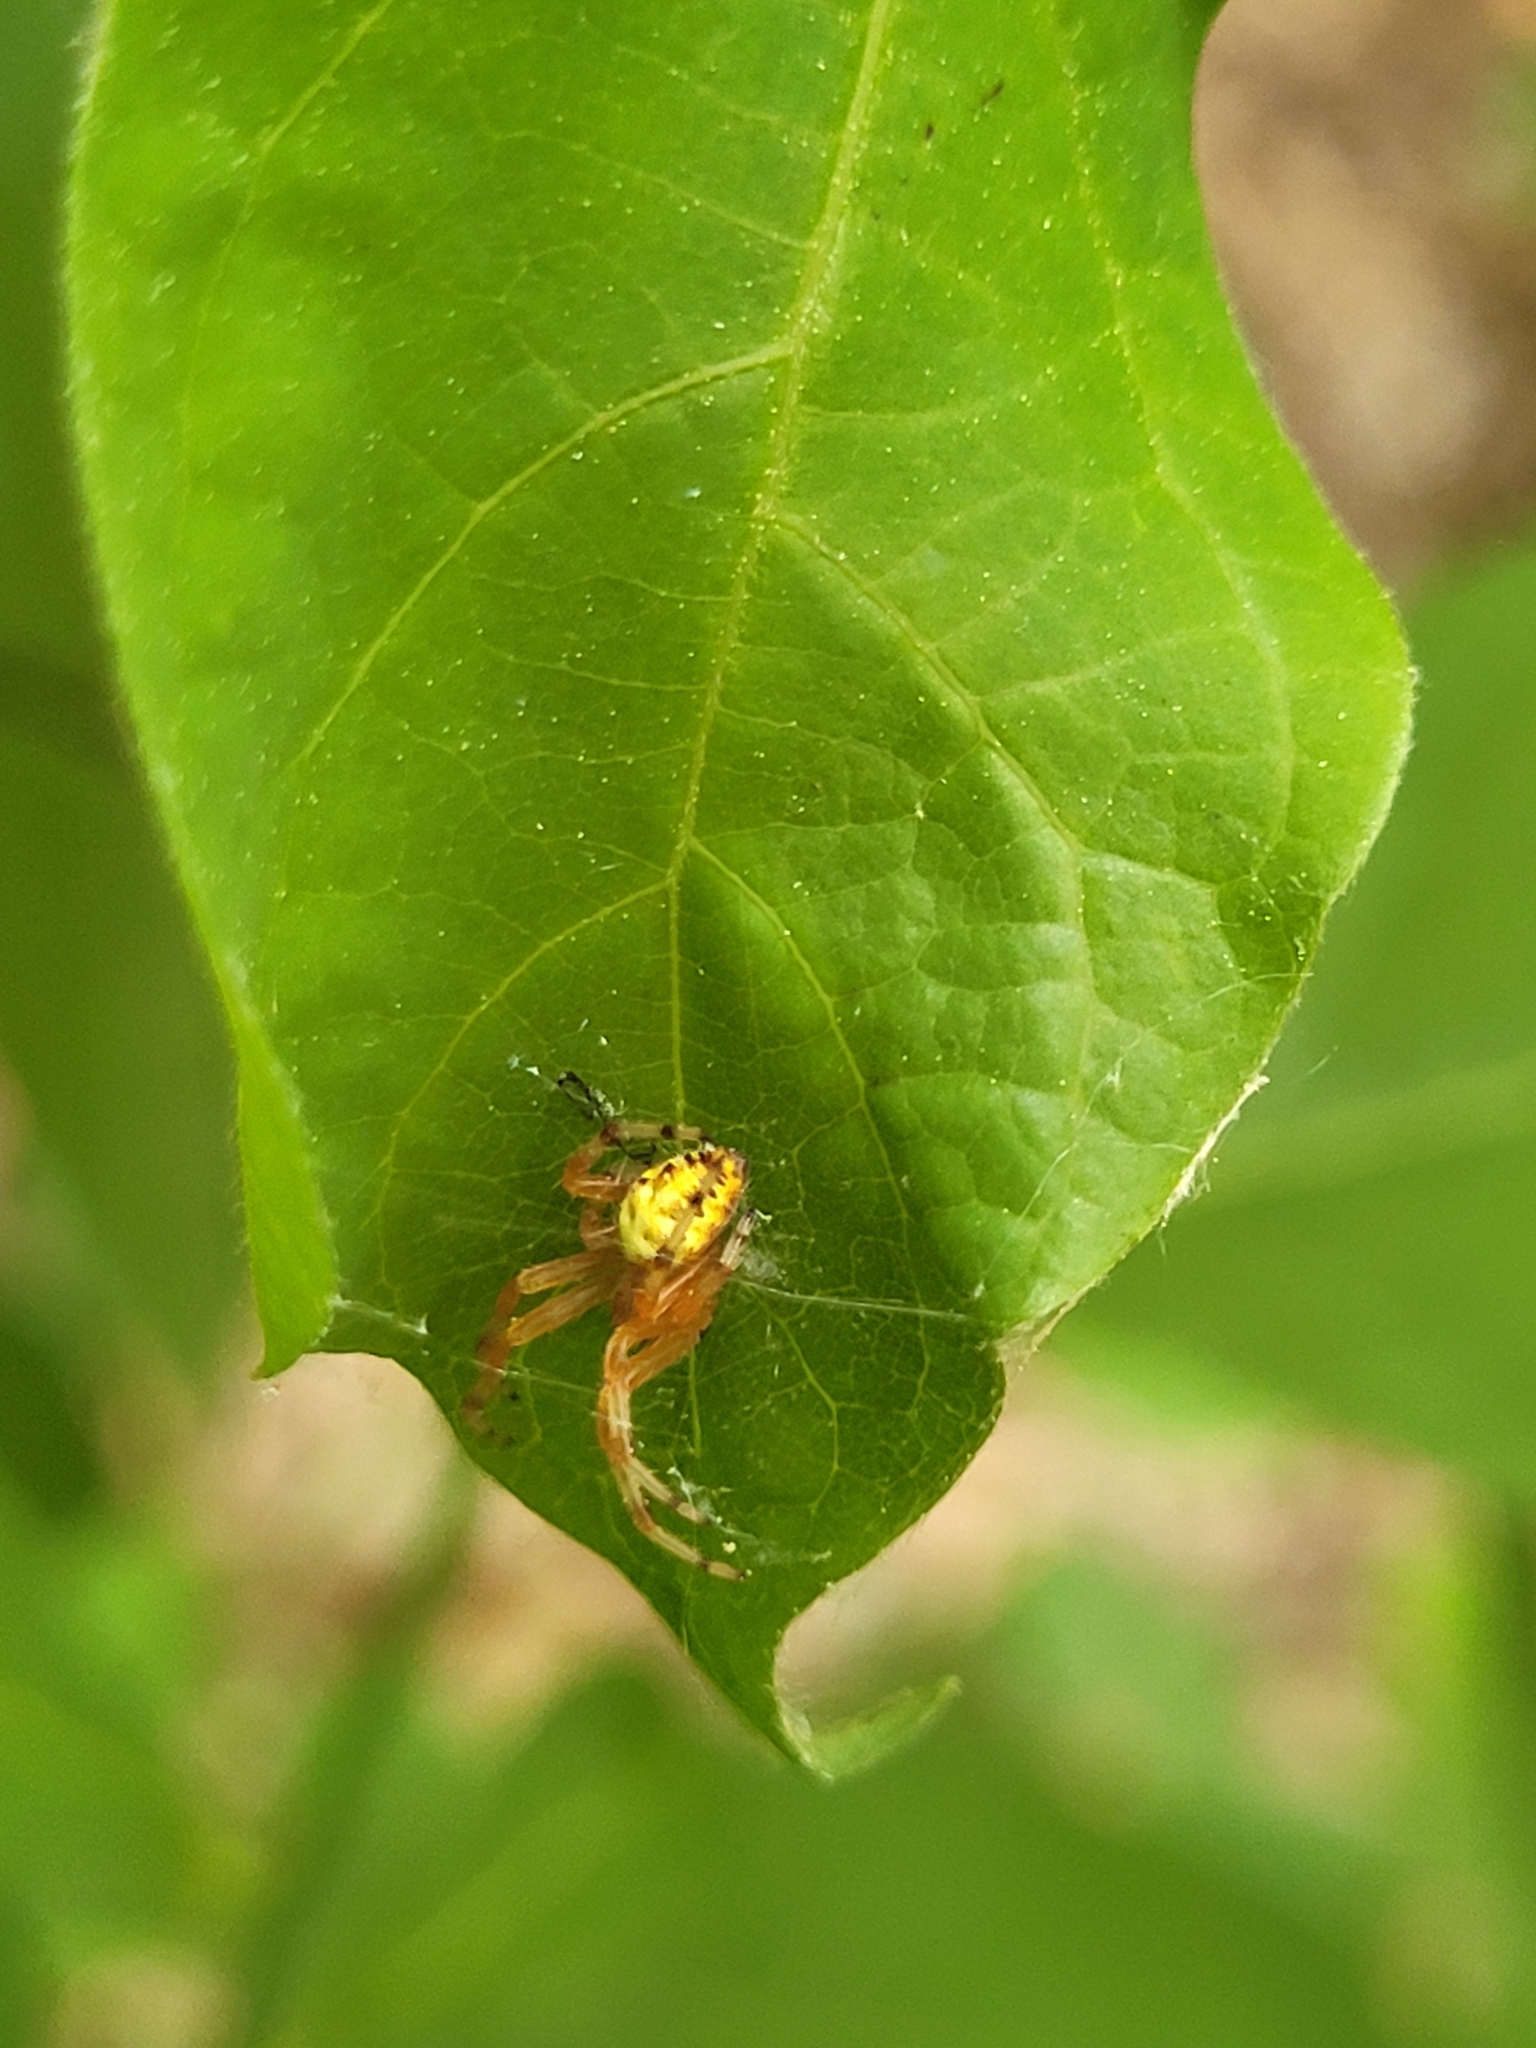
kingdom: Animalia
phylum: Arthropoda
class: Arachnida
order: Araneae
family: Araneidae
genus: Araneus
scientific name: Araneus marmoreus
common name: Marbled orbweaver
